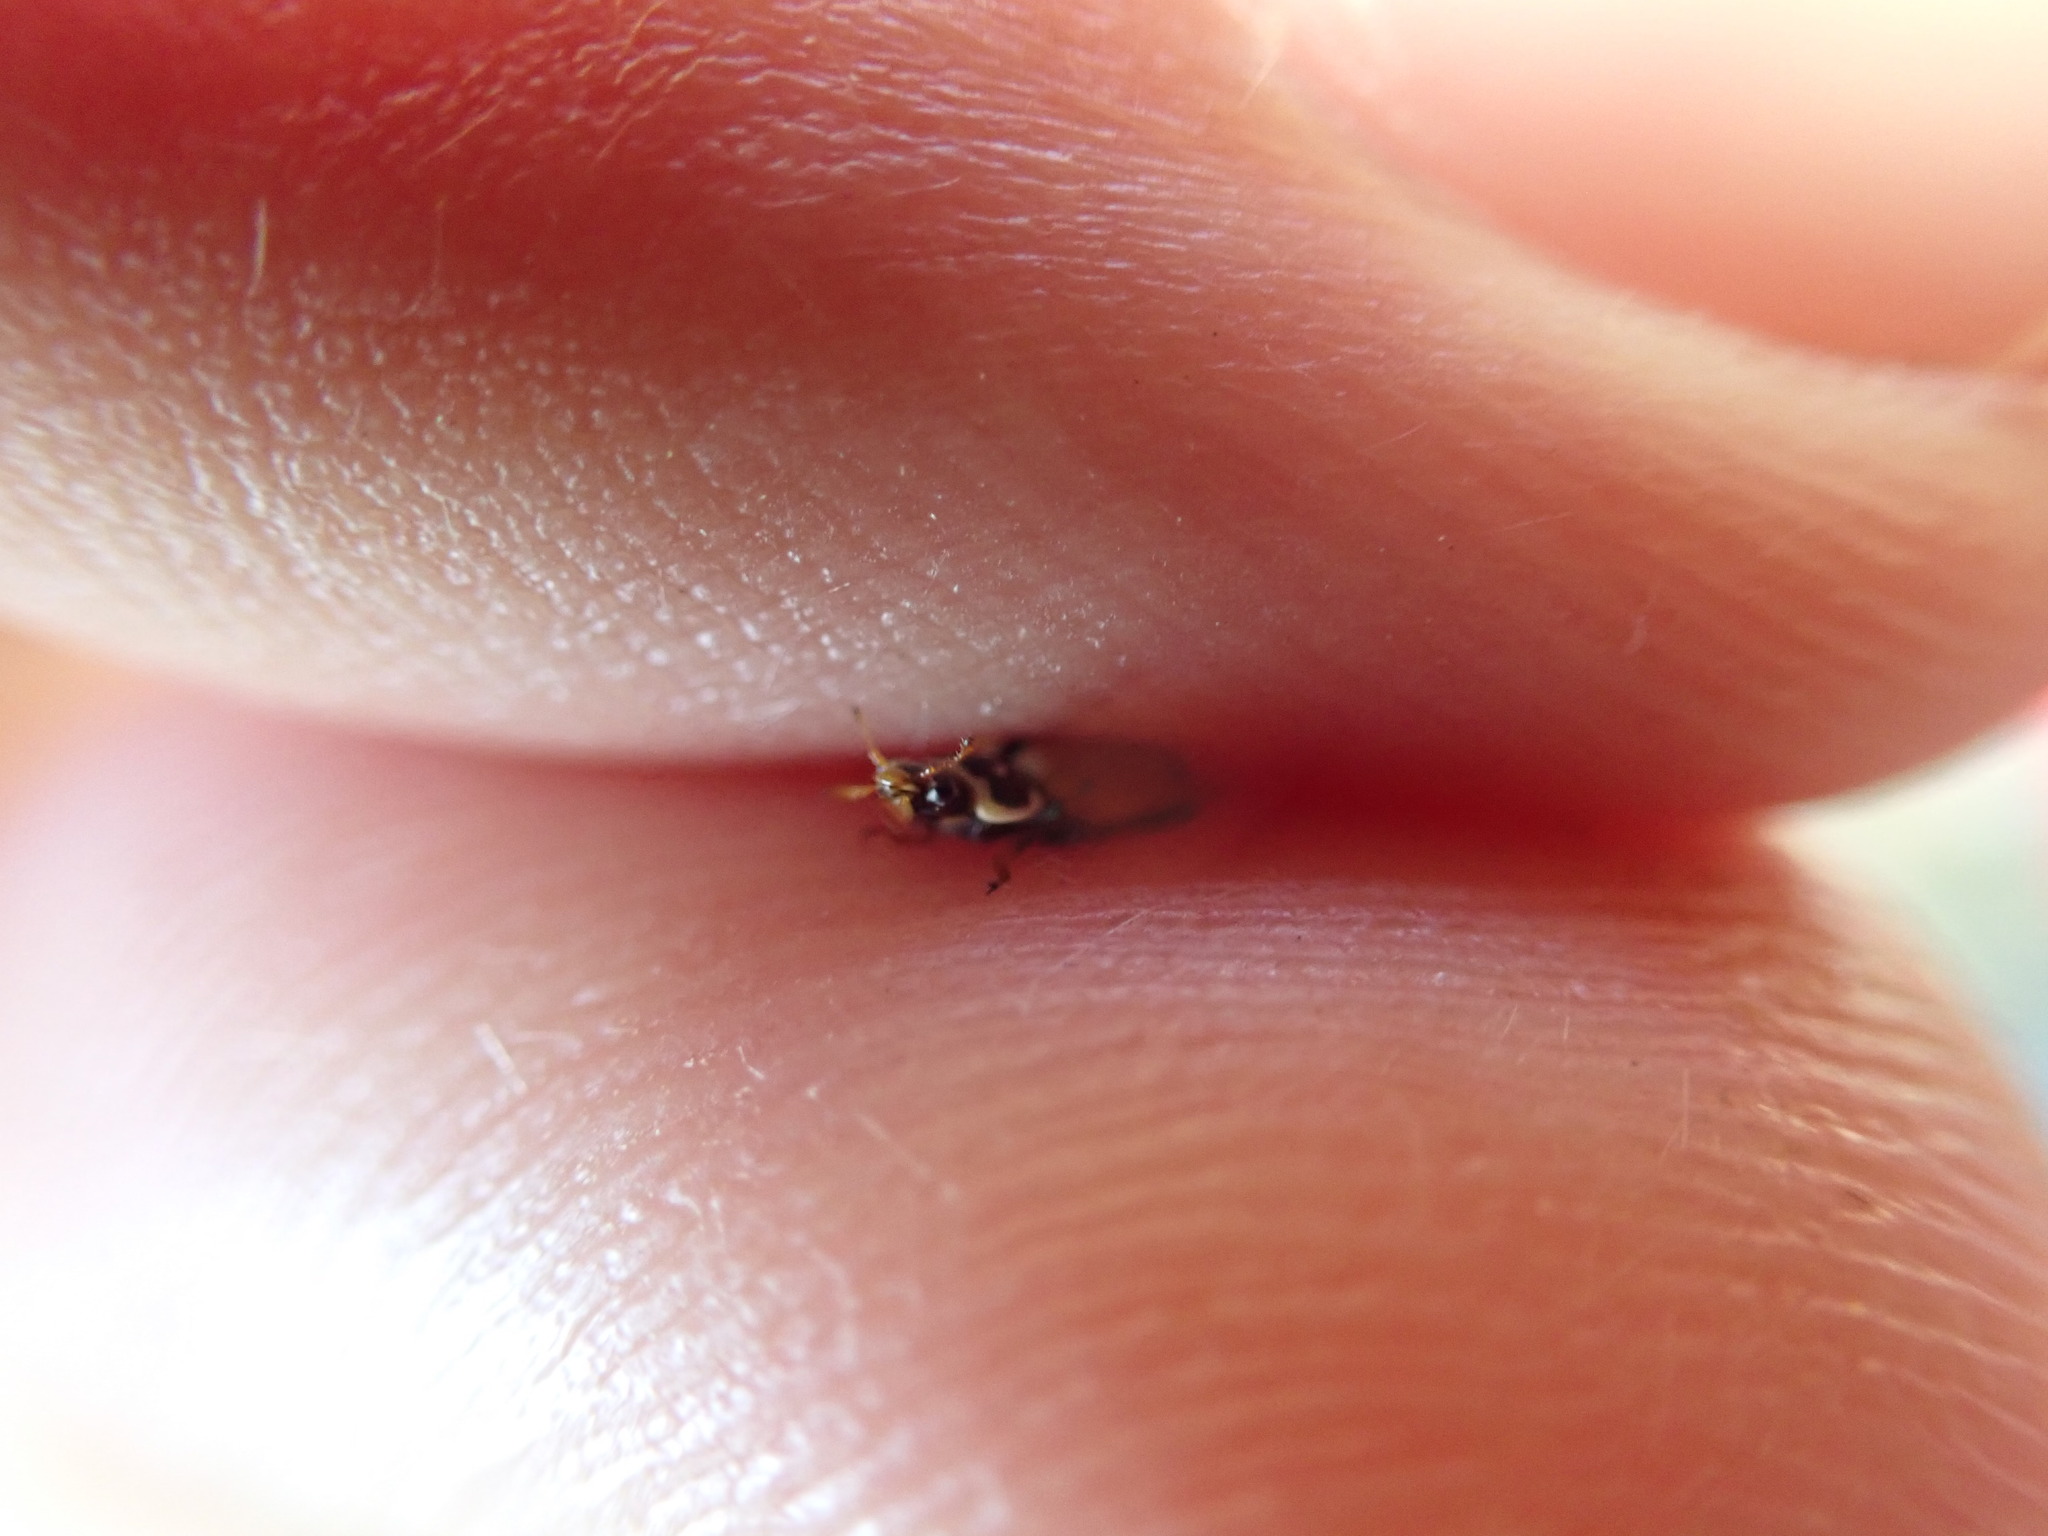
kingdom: Animalia
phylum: Arthropoda
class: Insecta
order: Coleoptera
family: Coccinellidae
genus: Hippodamia
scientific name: Hippodamia variegata
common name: Ladybird beetle
